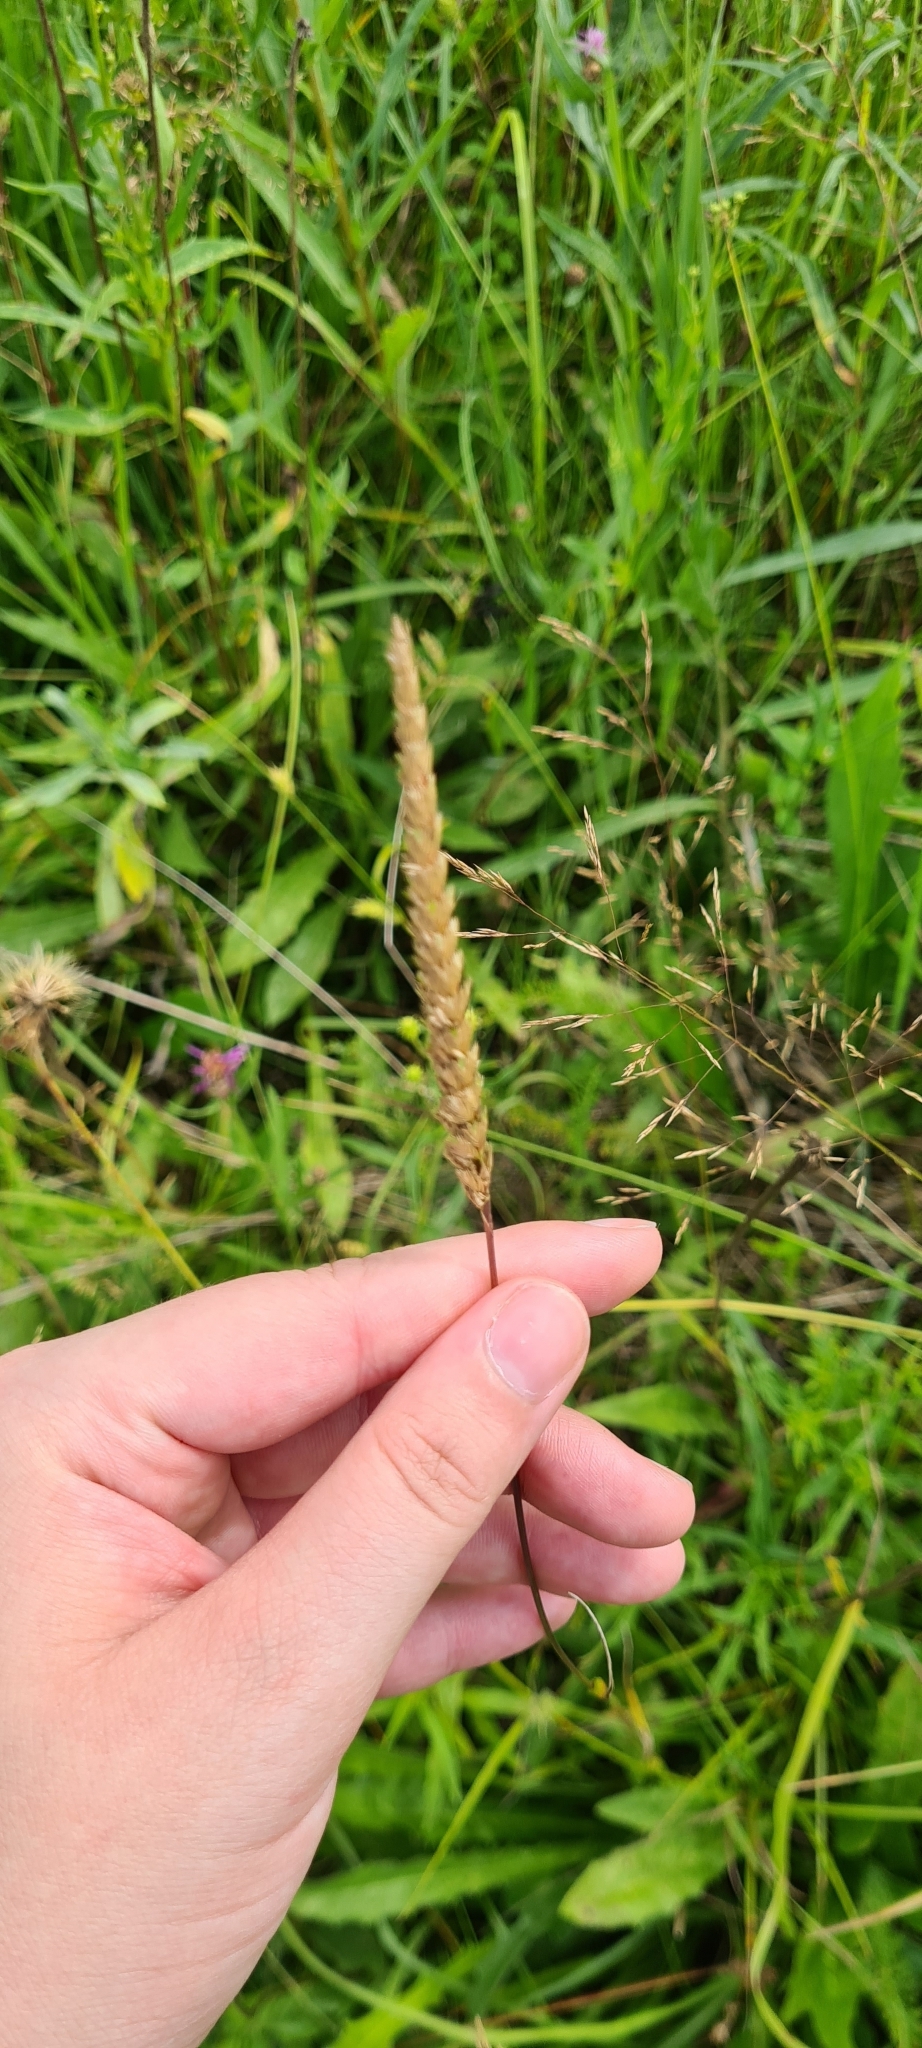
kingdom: Plantae
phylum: Tracheophyta
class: Liliopsida
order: Poales
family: Poaceae
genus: Cynosurus
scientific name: Cynosurus cristatus
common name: Crested dog's-tail
